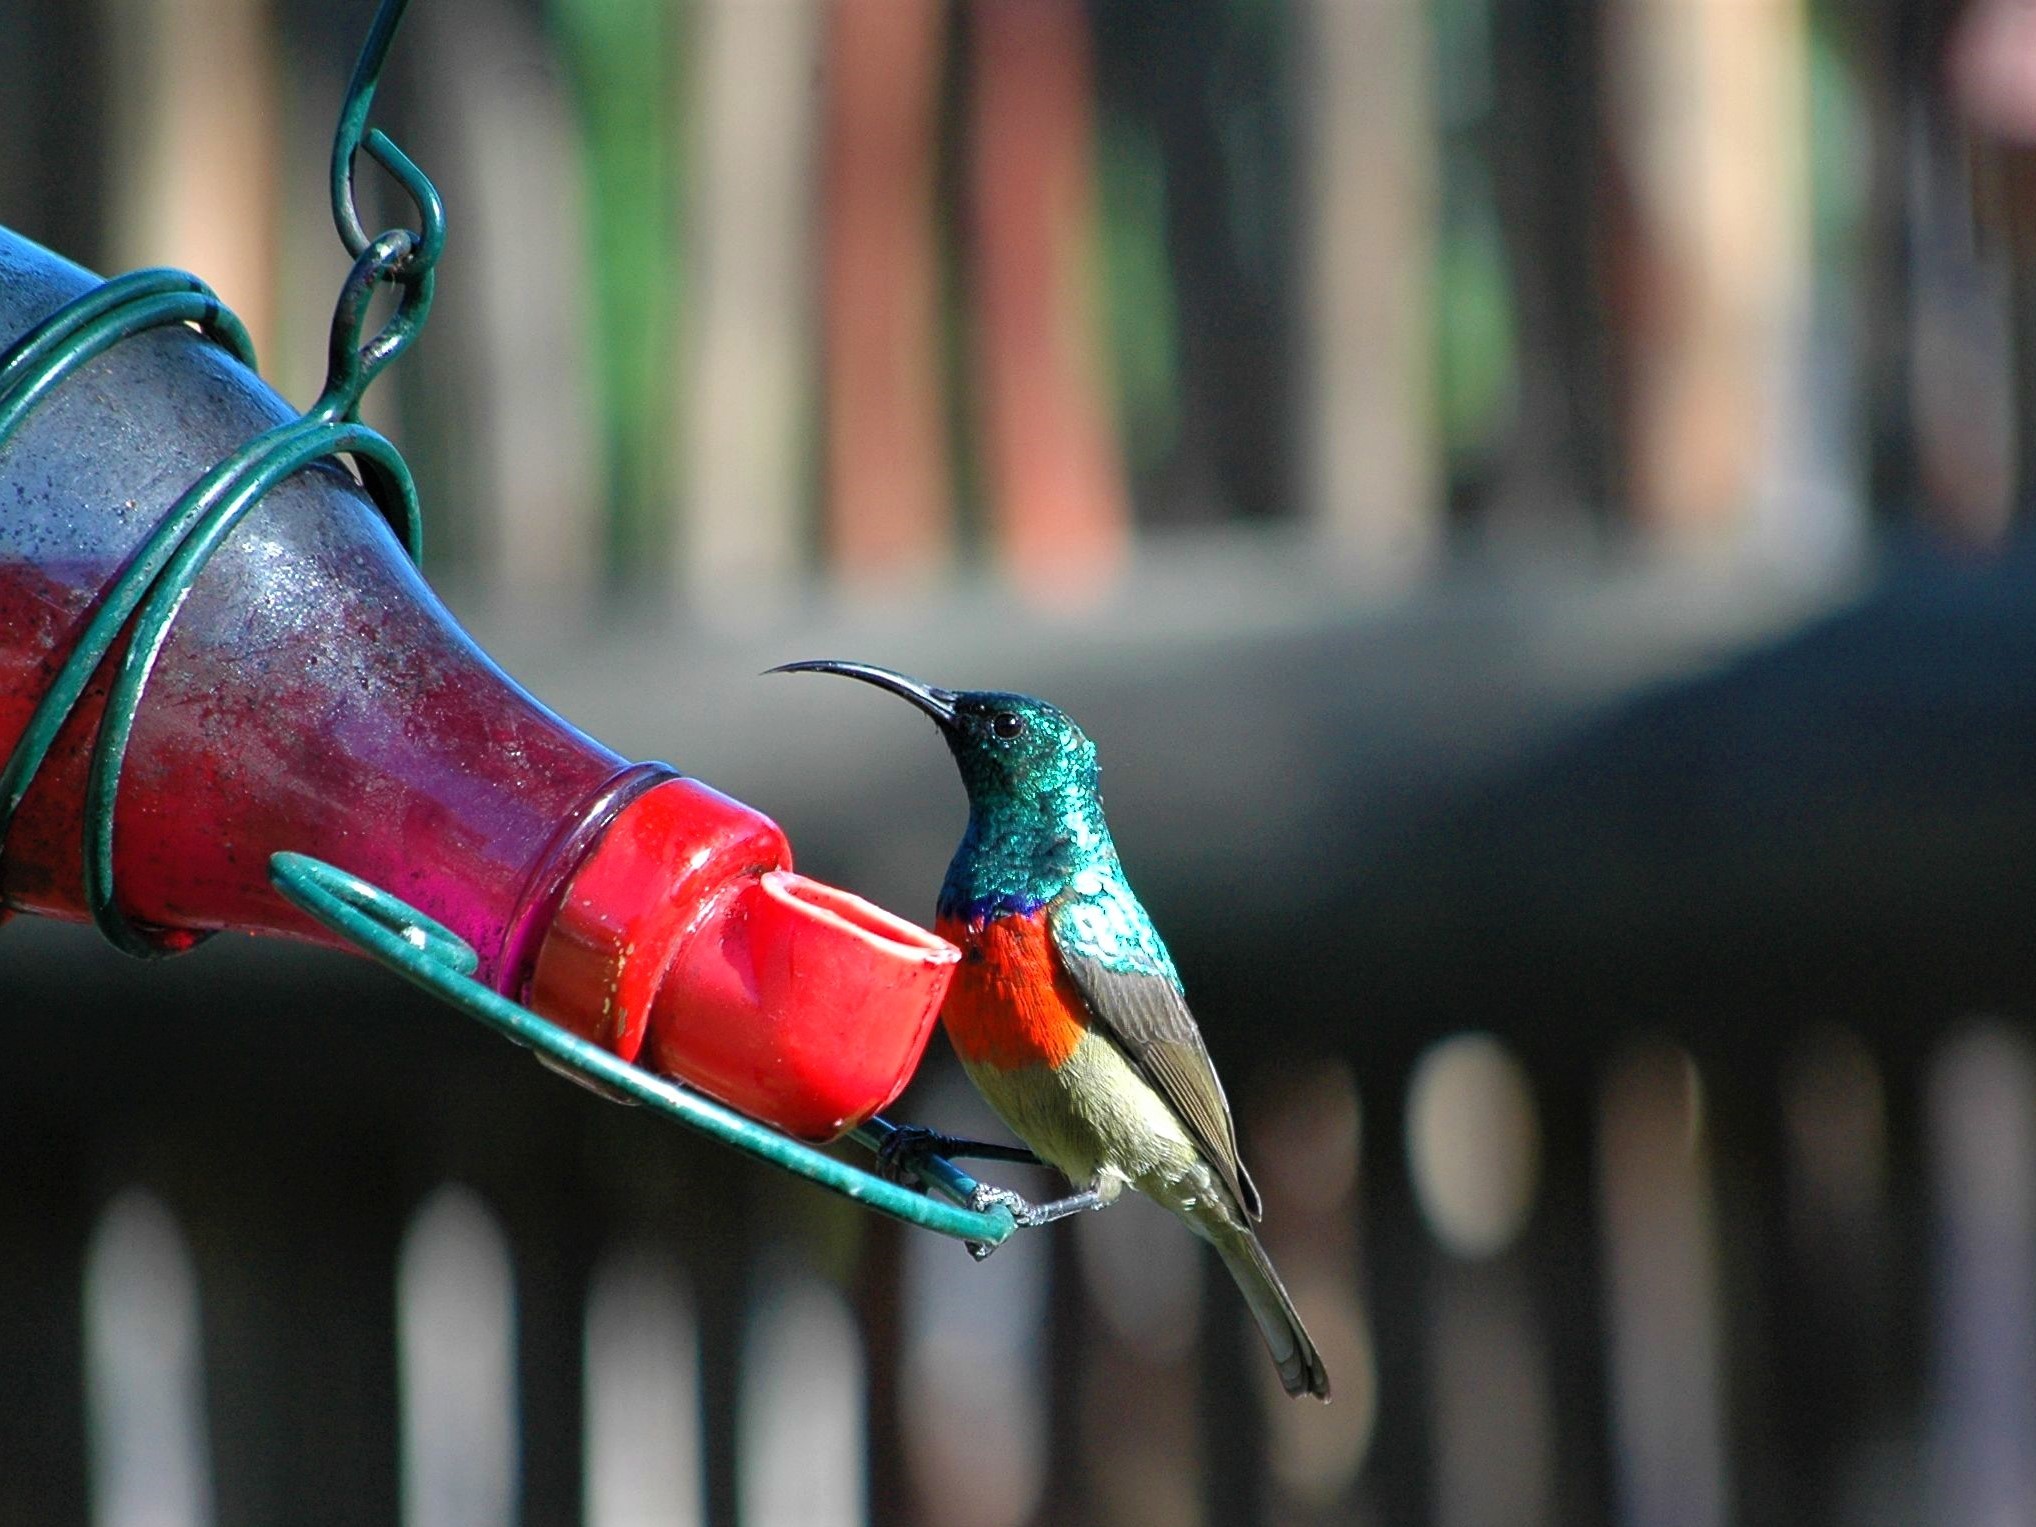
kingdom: Animalia
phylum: Chordata
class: Aves
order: Passeriformes
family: Nectariniidae
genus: Cinnyris
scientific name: Cinnyris afer
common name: Greater double-collared sunbird
